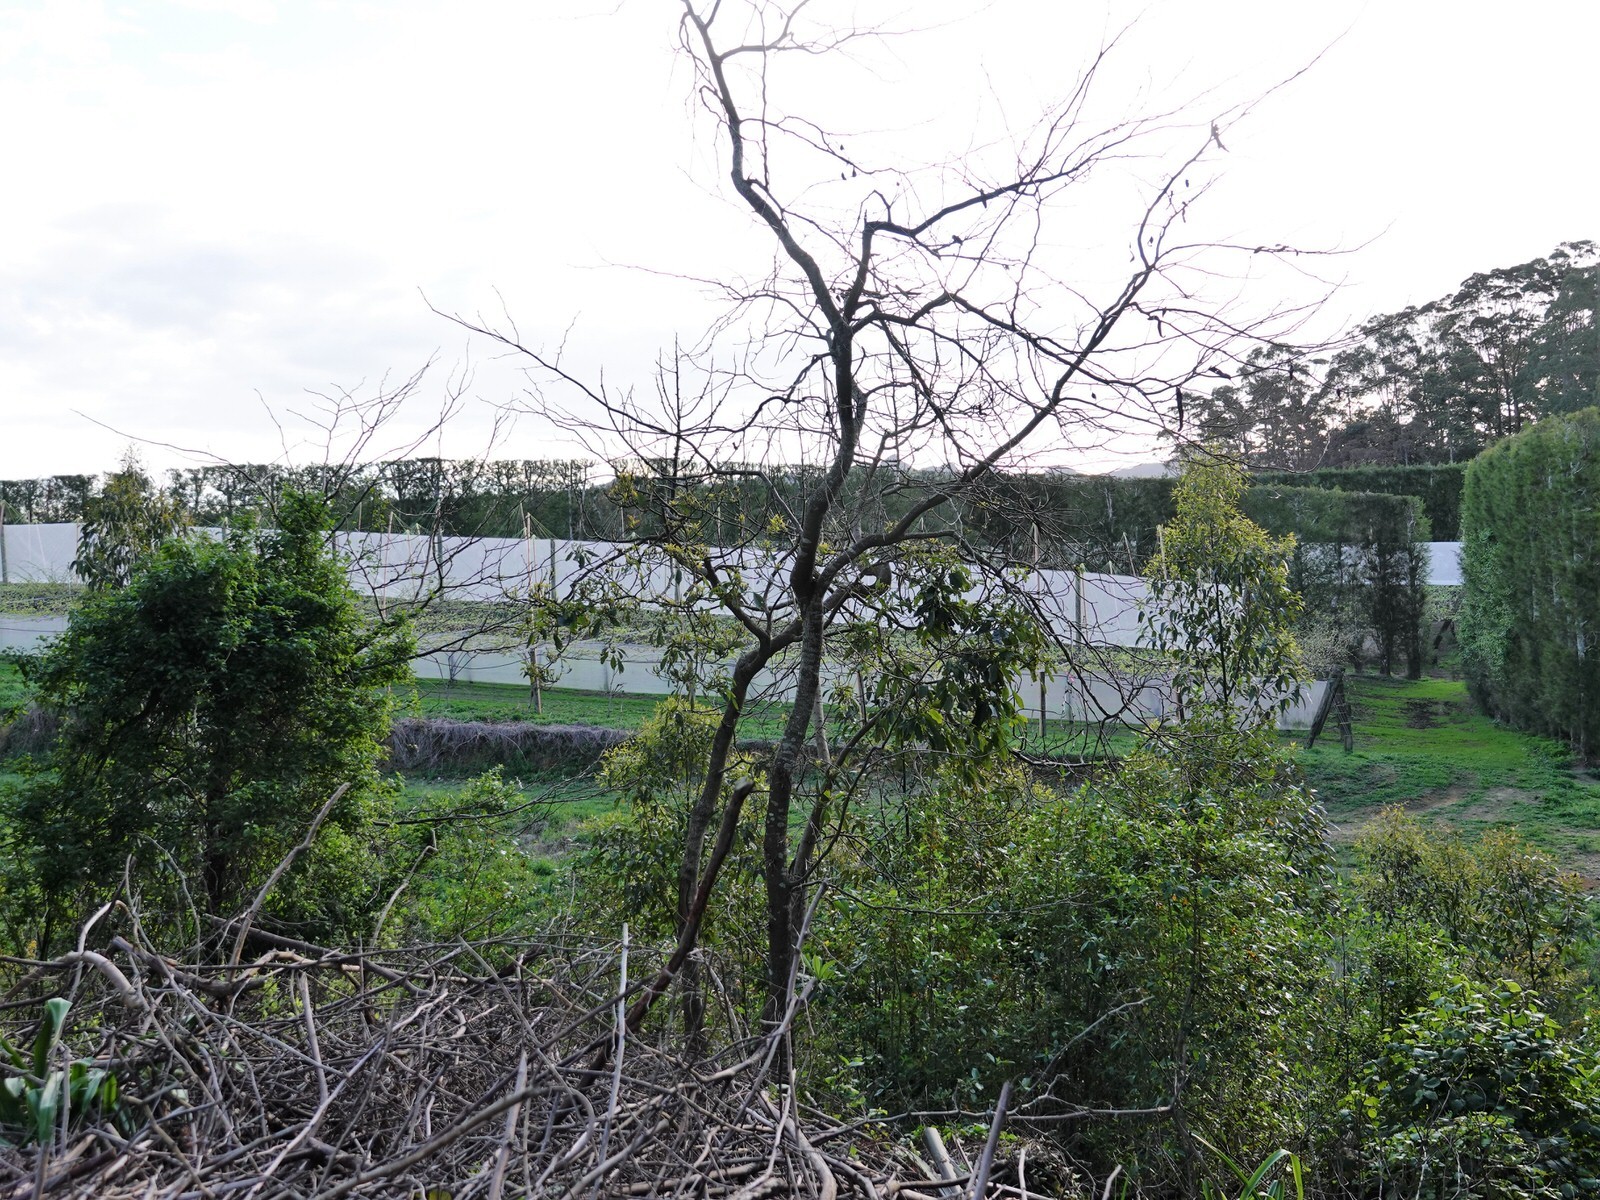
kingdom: Plantae
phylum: Tracheophyta
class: Magnoliopsida
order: Fabales
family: Fabaceae
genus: Gleditsia
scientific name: Gleditsia triacanthos
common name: Common honeylocust
